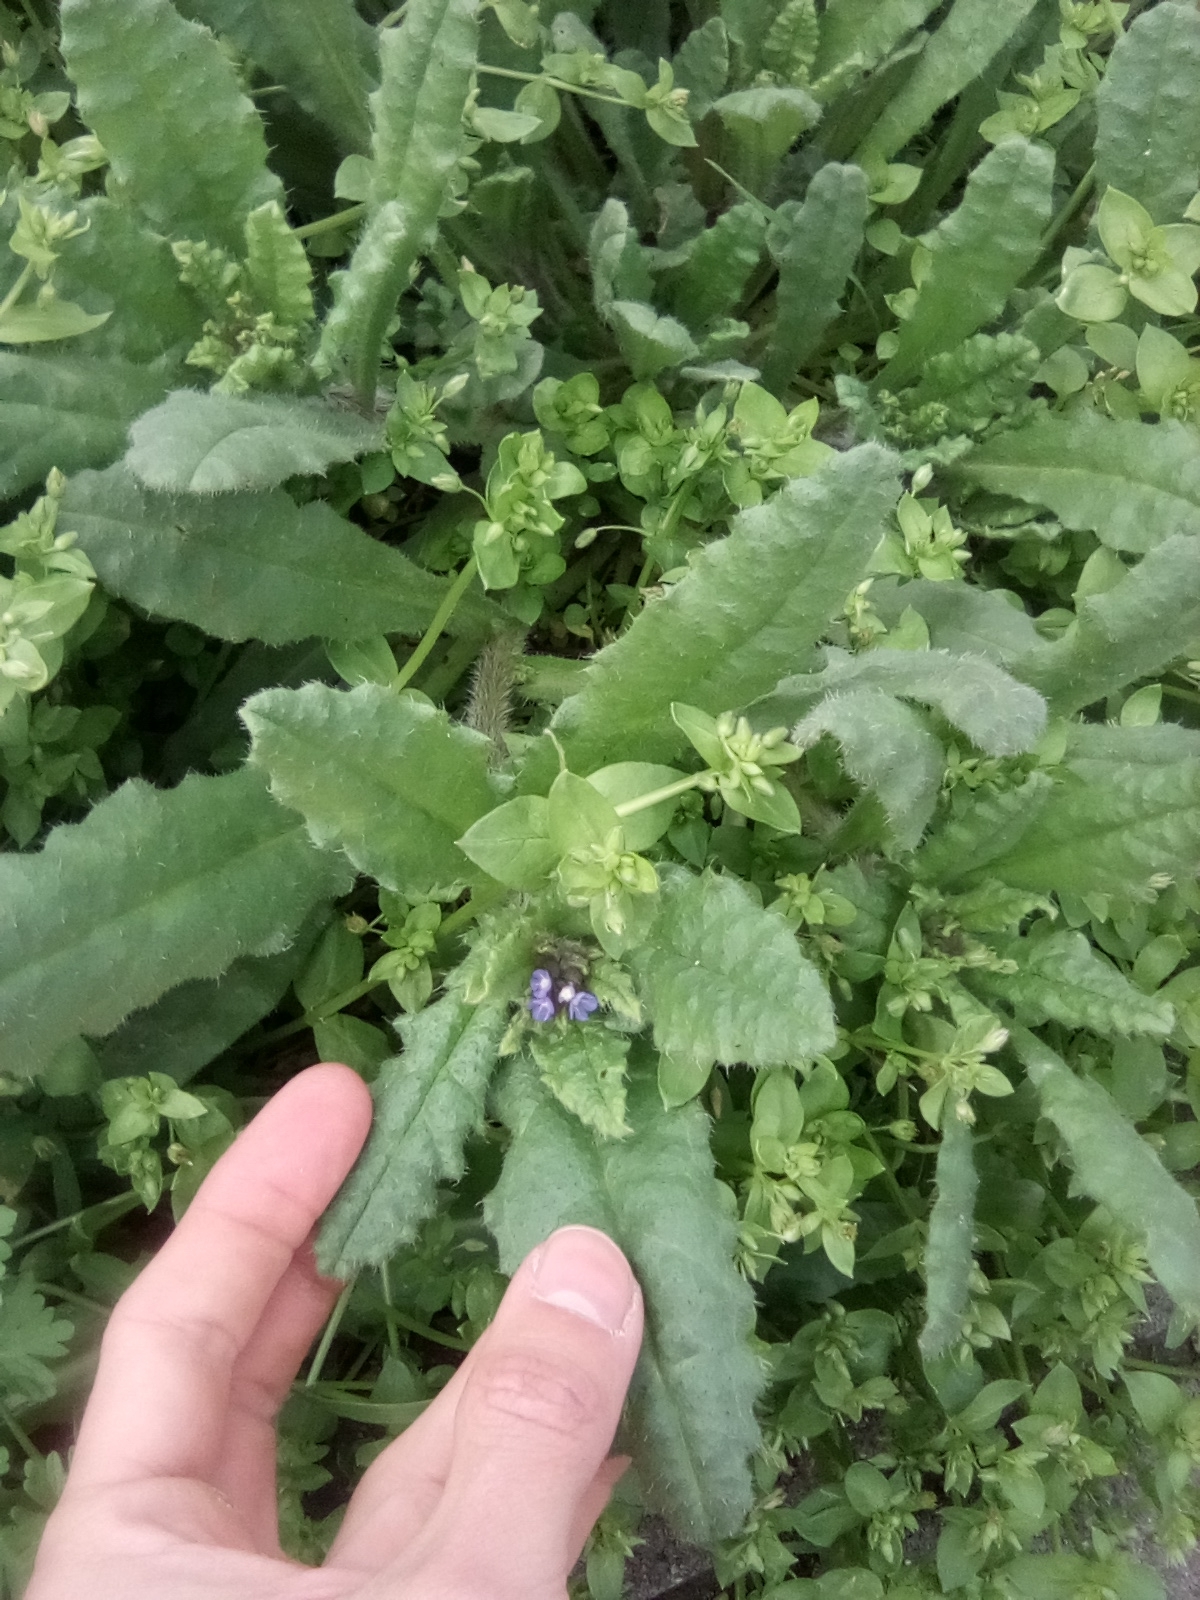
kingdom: Plantae
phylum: Tracheophyta
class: Magnoliopsida
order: Boraginales
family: Boraginaceae
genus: Lycopsis
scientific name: Lycopsis arvensis
